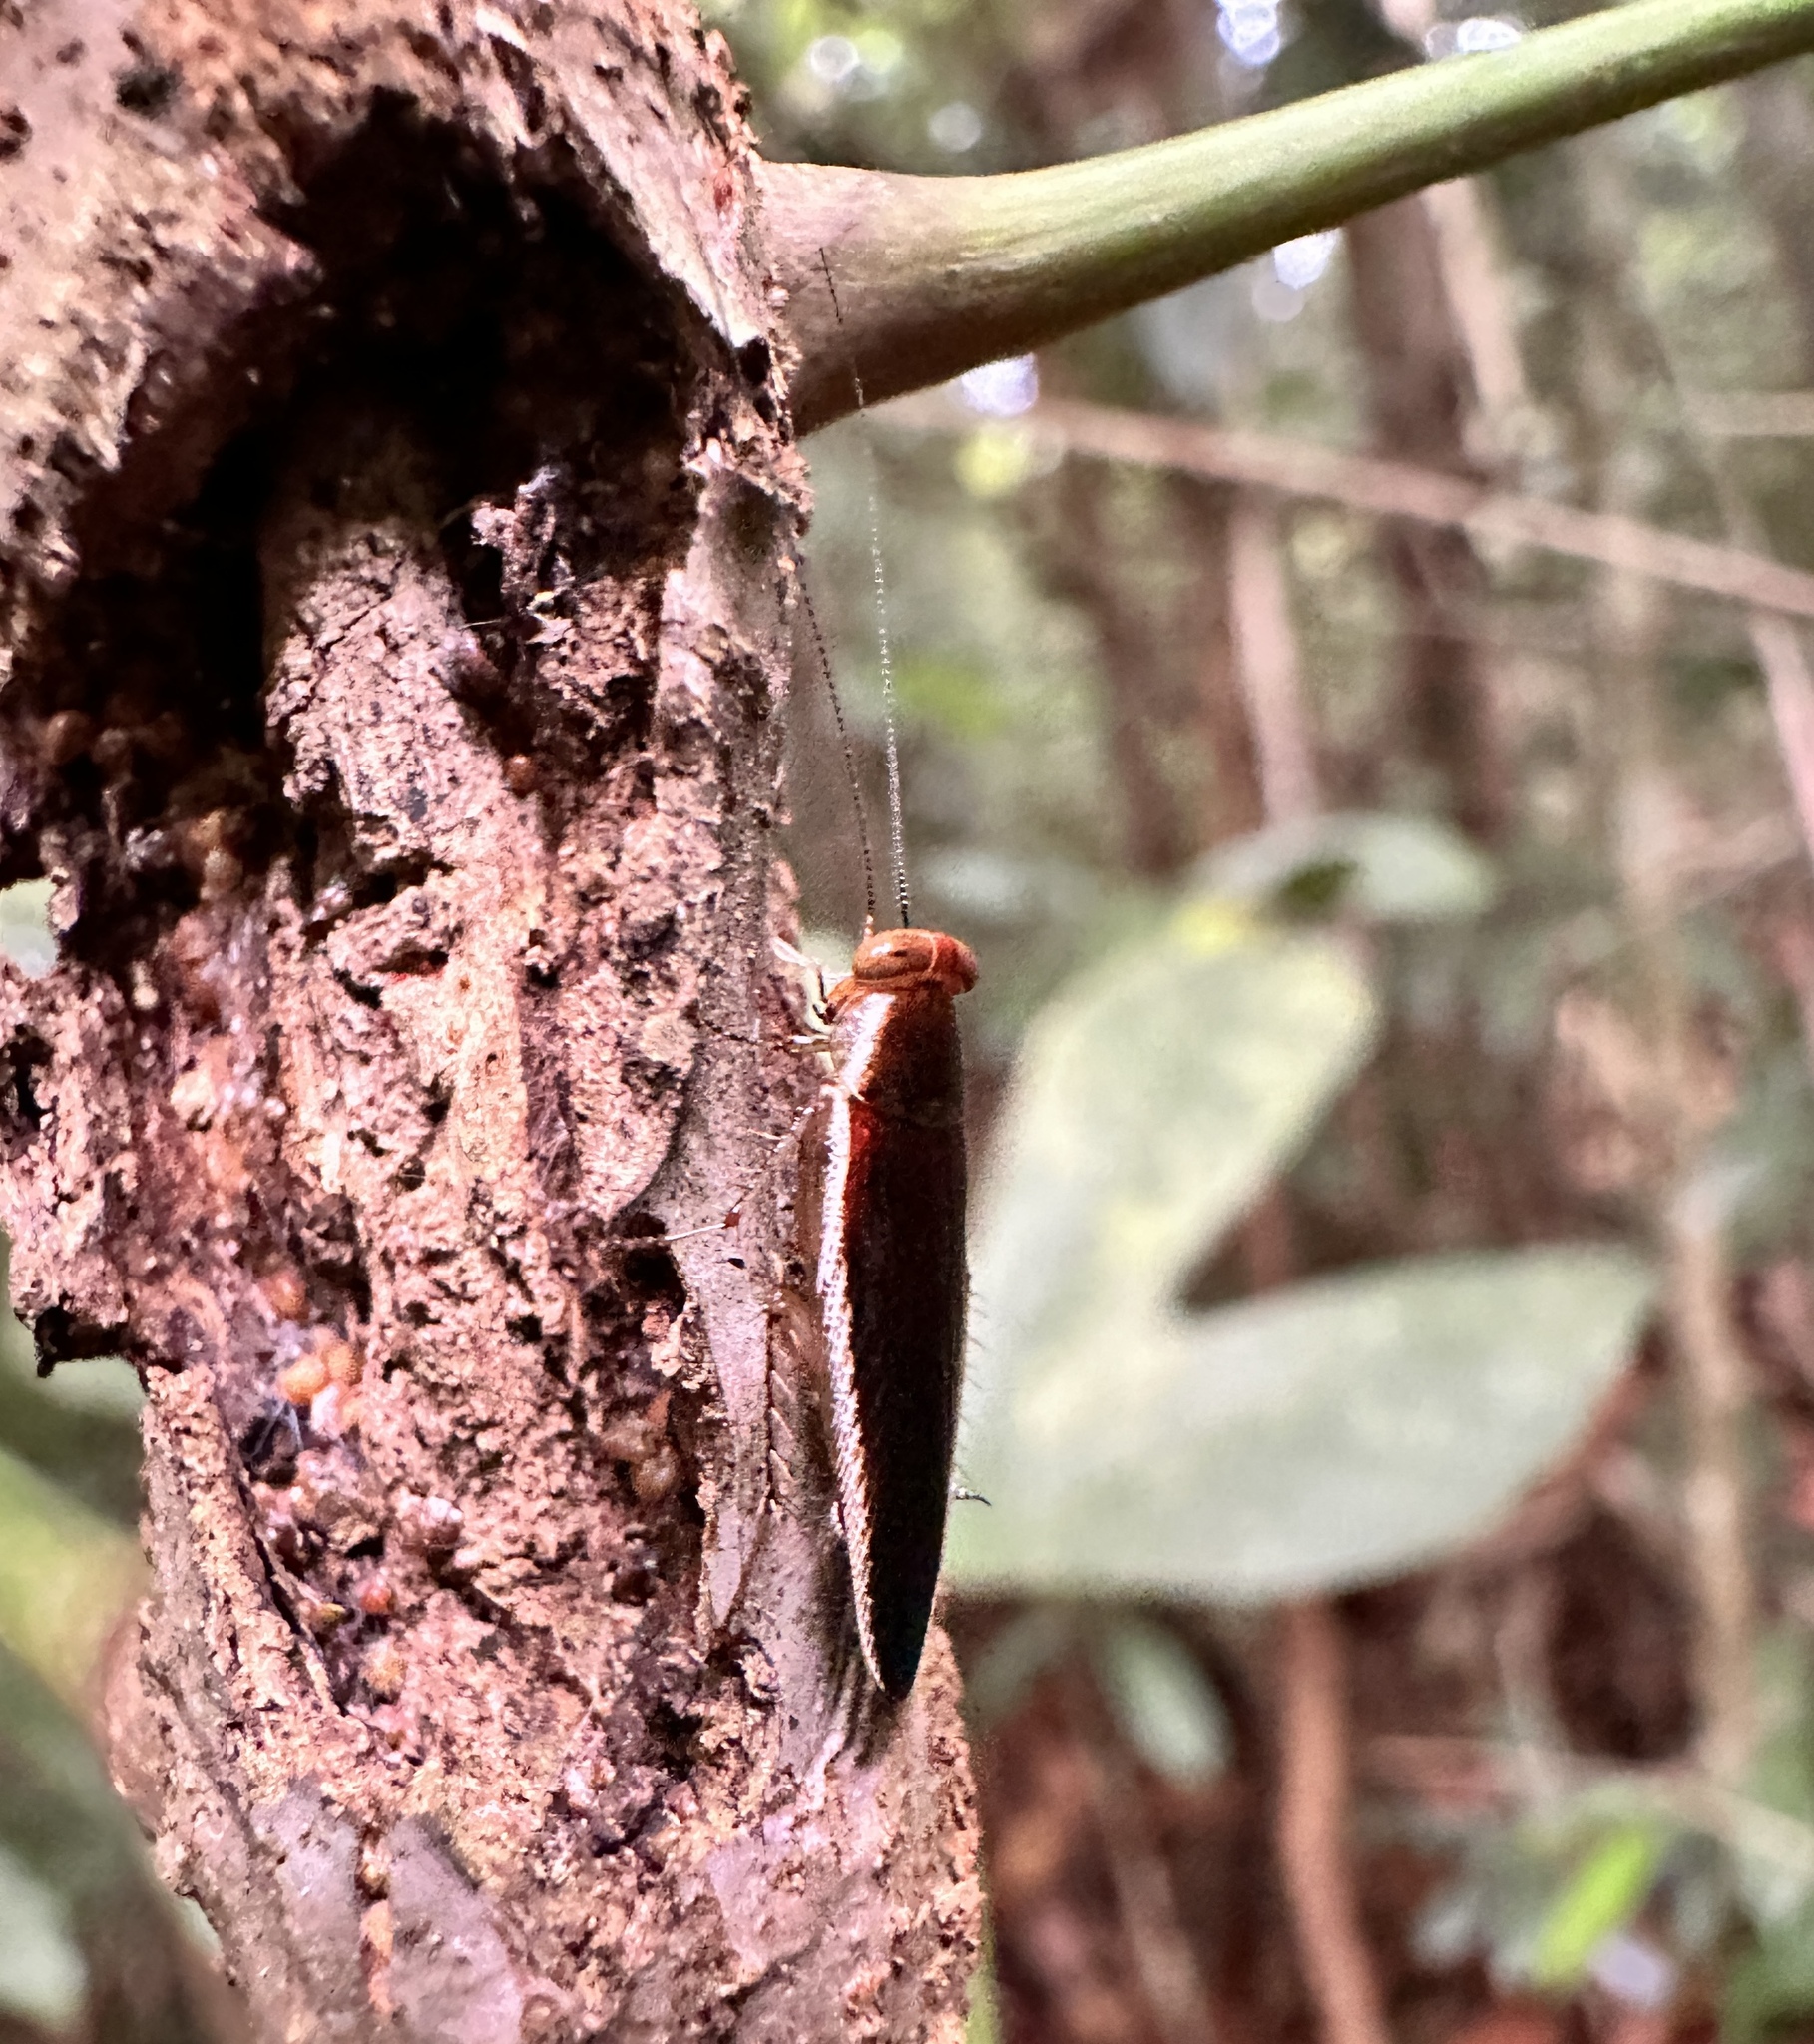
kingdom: Animalia
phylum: Arthropoda
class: Insecta
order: Blattodea
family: Ectobiidae
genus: Pseudophyllodromia
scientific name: Pseudophyllodromia laticeps
